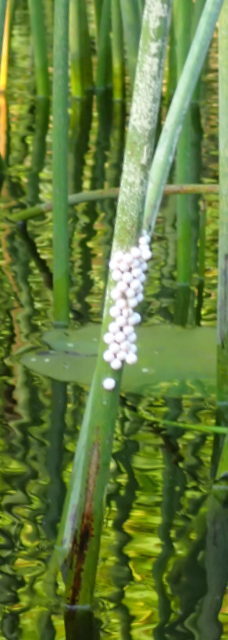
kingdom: Animalia
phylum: Mollusca
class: Gastropoda
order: Architaenioglossa
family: Ampullariidae
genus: Pomacea
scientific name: Pomacea paludosa
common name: Florida applesnail
